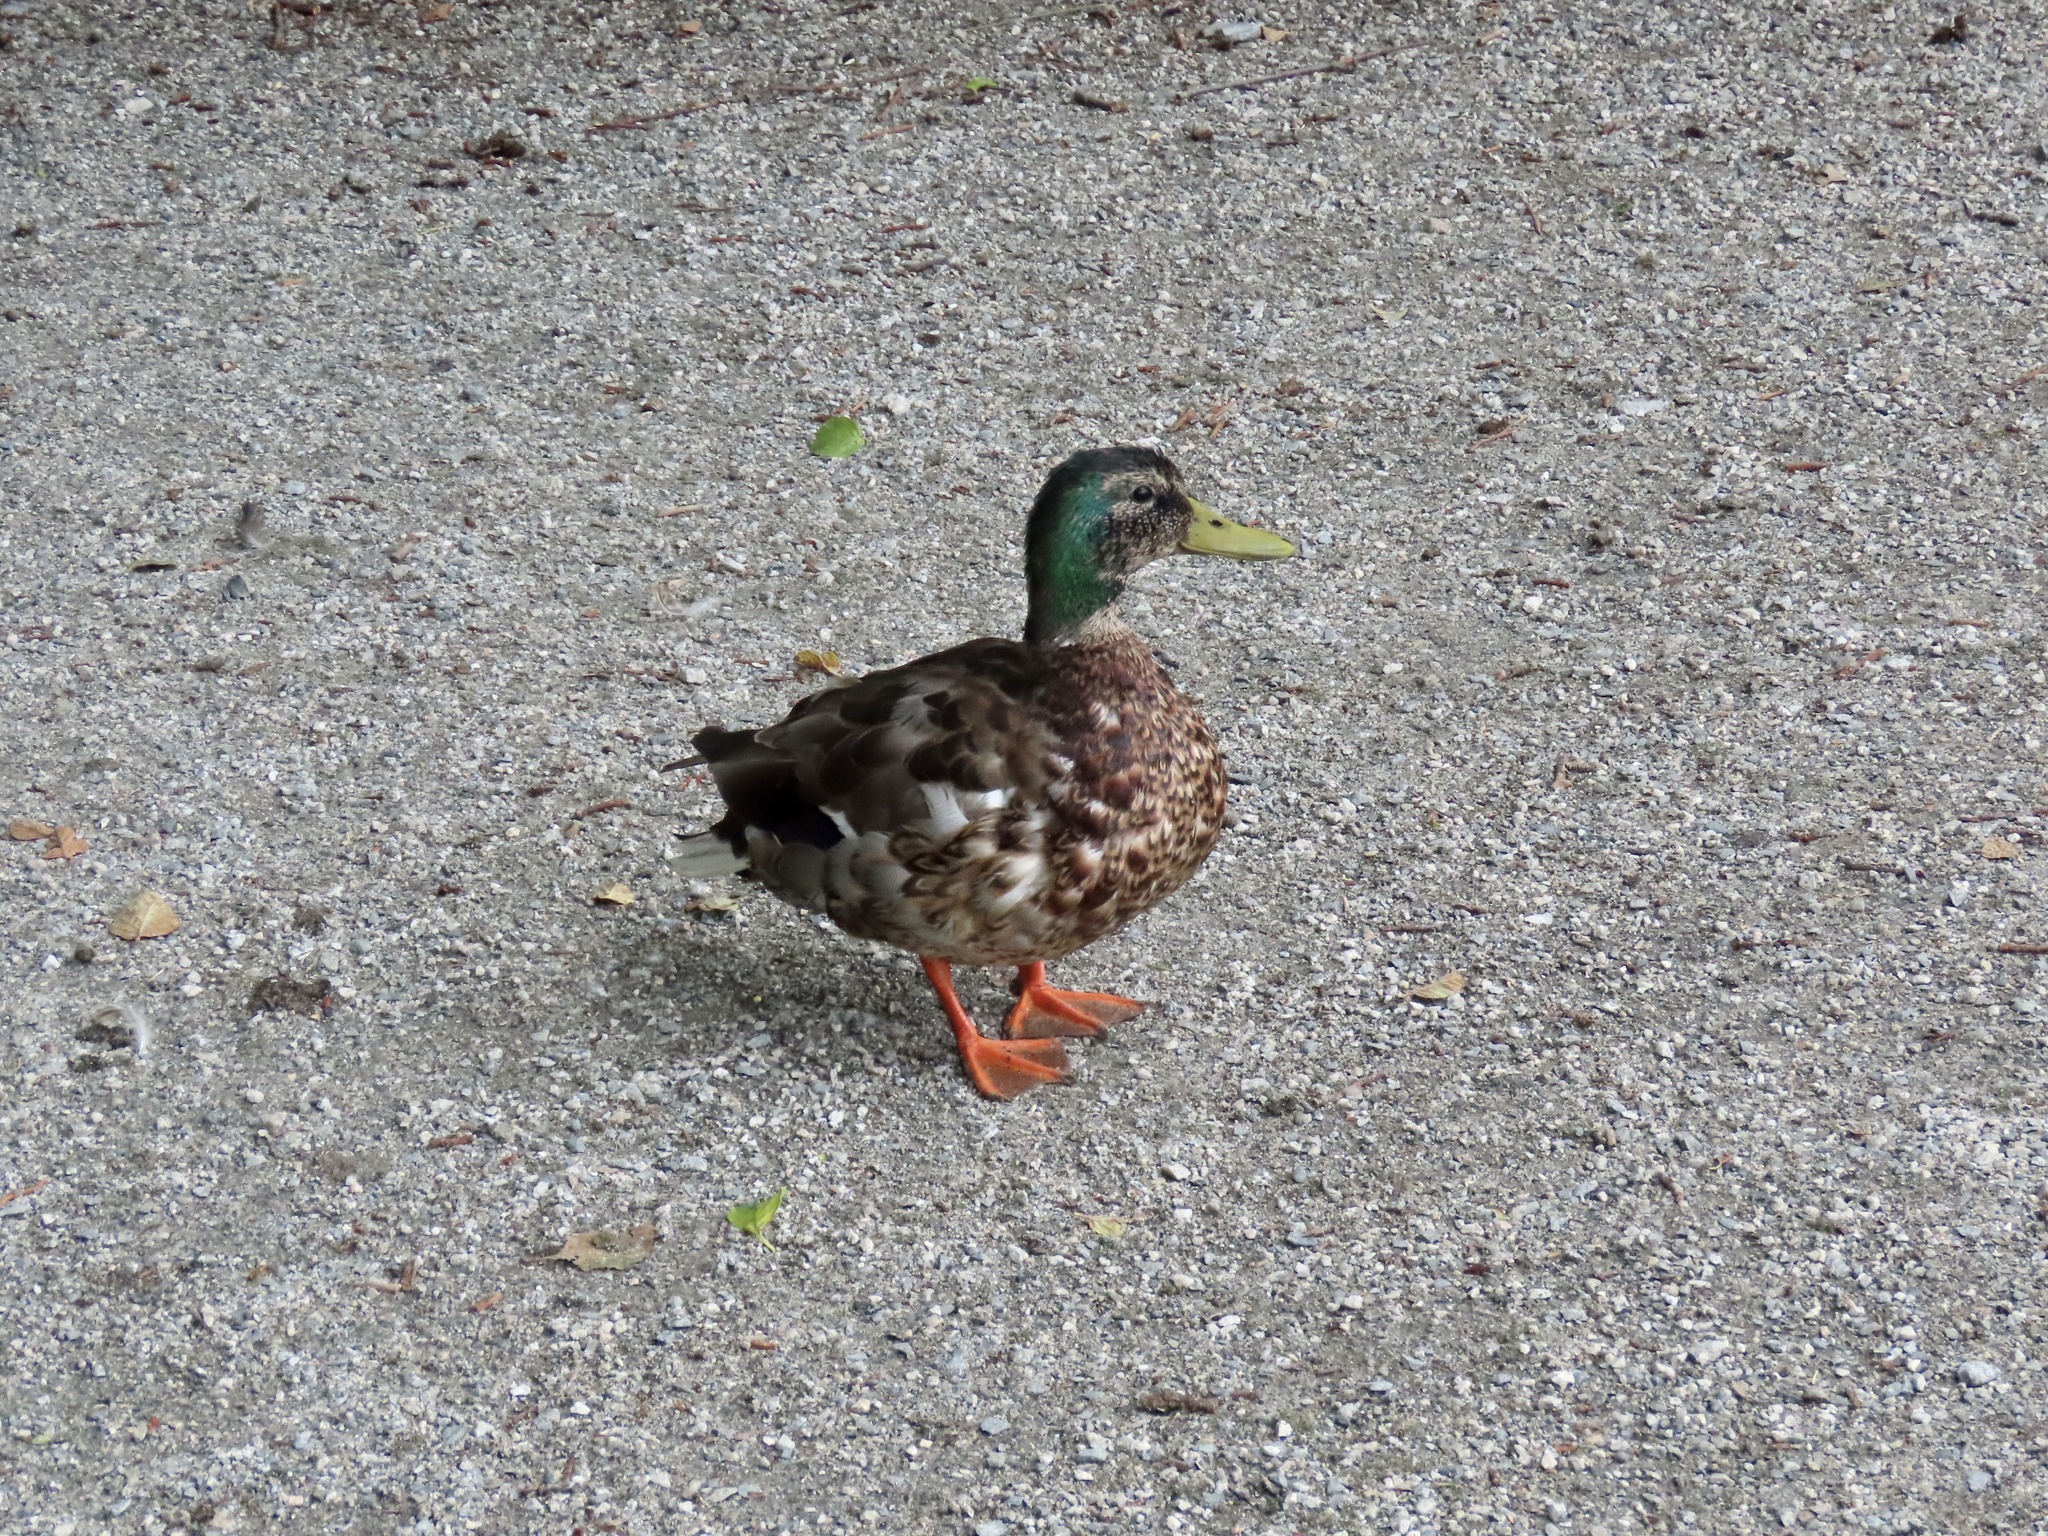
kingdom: Animalia
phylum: Chordata
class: Aves
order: Anseriformes
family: Anatidae
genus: Anas
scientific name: Anas platyrhynchos
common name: Mallard
